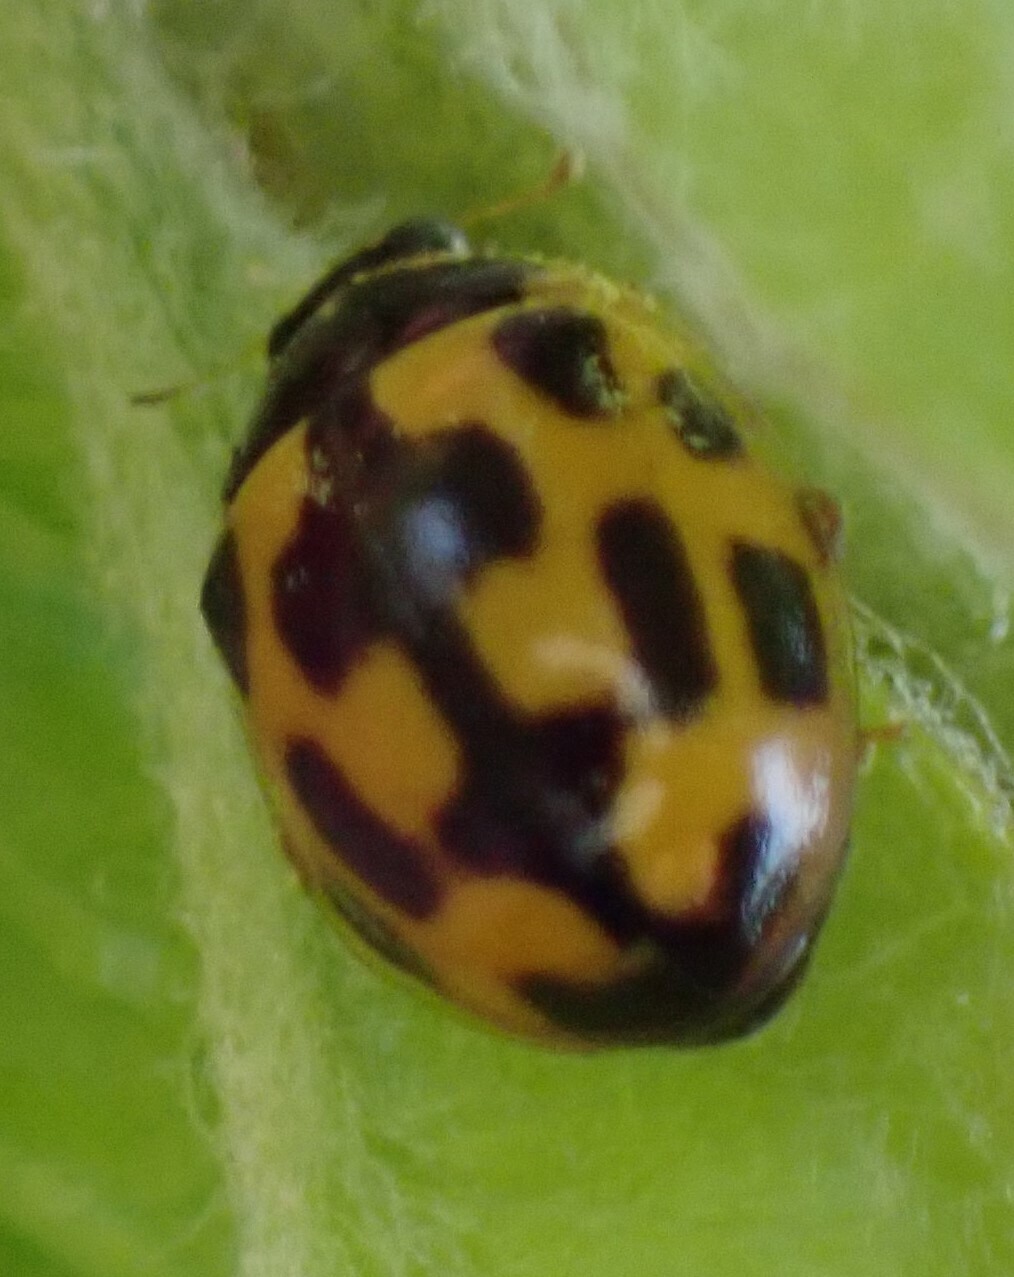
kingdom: Animalia
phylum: Arthropoda
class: Insecta
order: Coleoptera
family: Coccinellidae
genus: Propylaea
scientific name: Propylaea quatuordecimpunctata
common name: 14-spotted ladybird beetle
